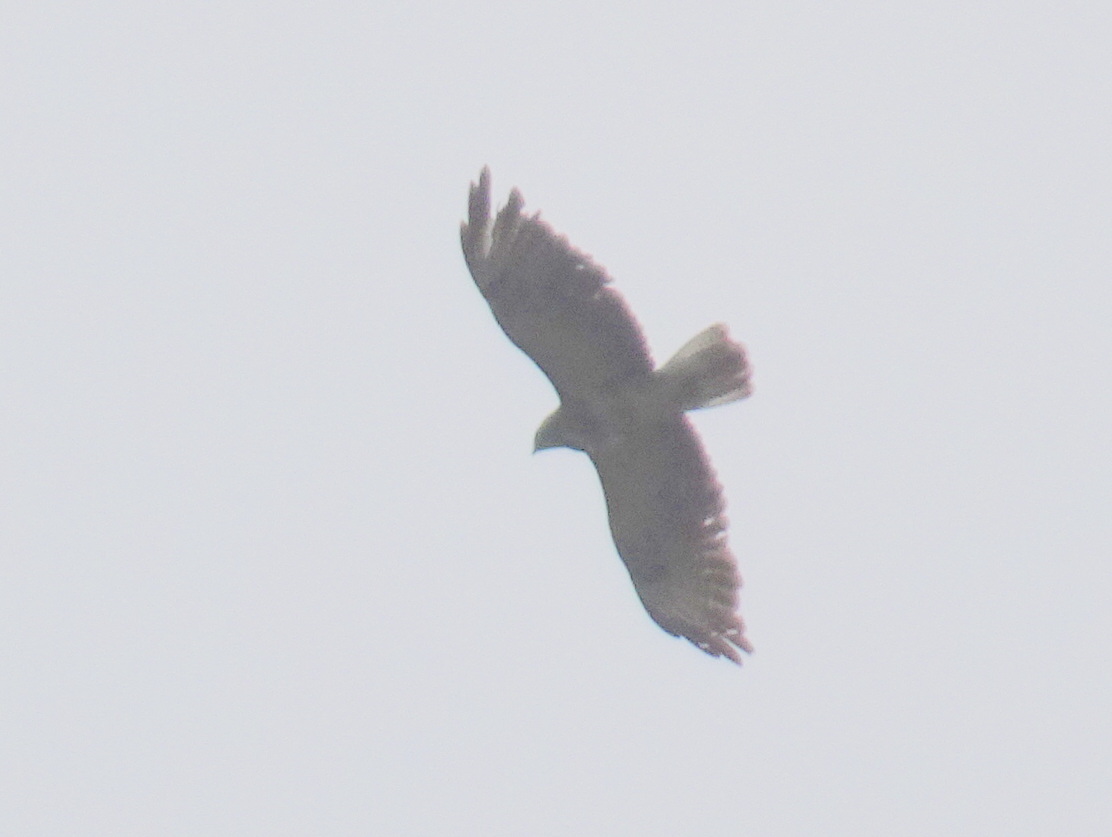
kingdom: Animalia
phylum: Chordata
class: Aves
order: Accipitriformes
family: Accipitridae
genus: Buteo
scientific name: Buteo buteo
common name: Common buzzard
